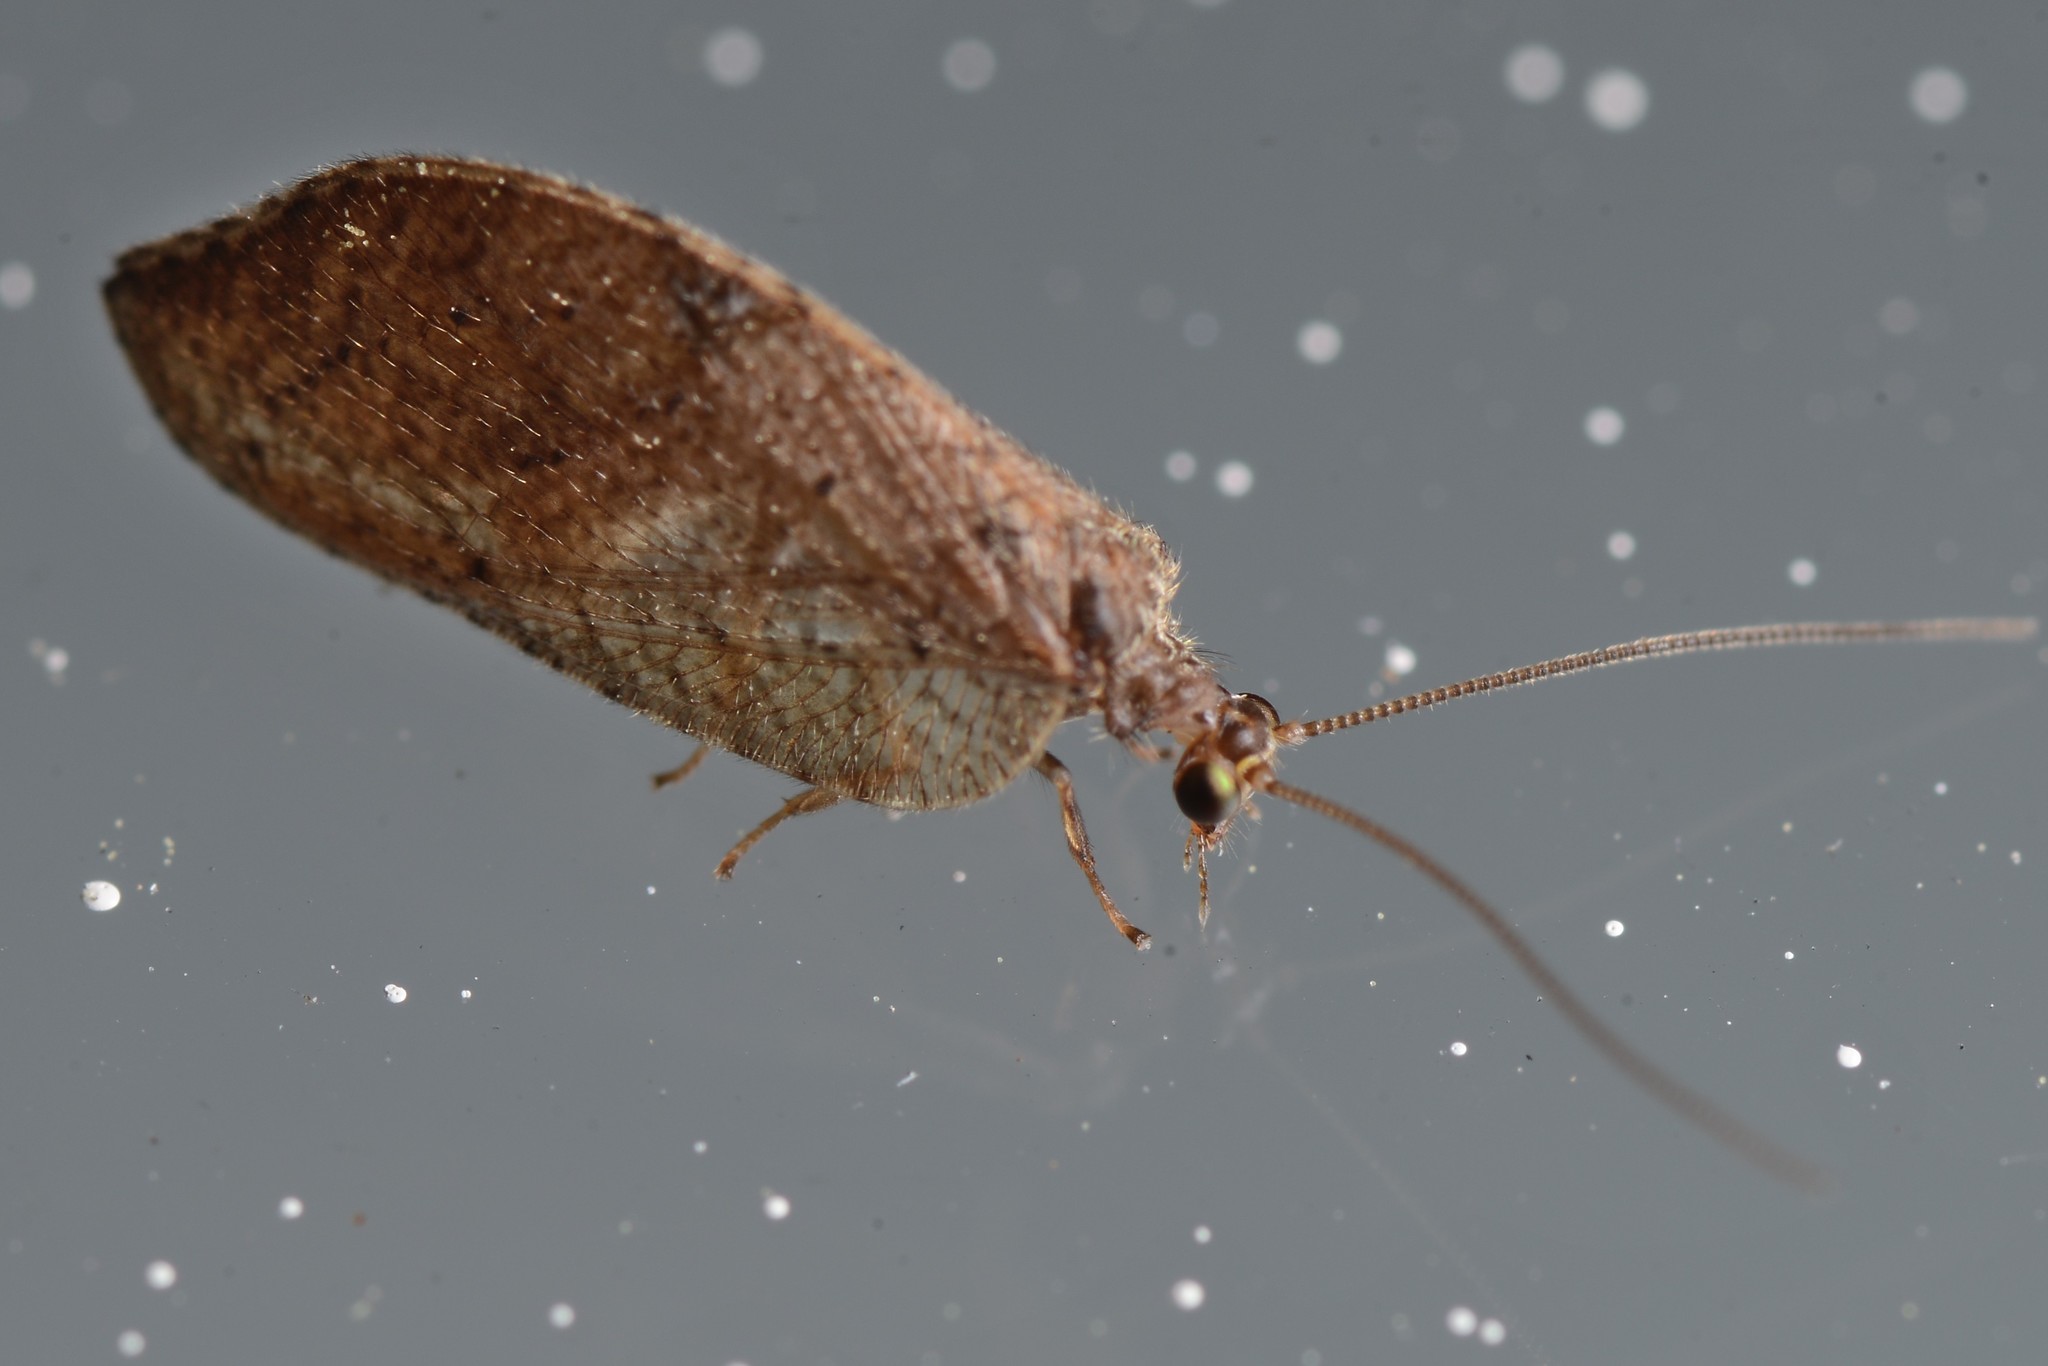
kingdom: Animalia
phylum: Arthropoda
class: Insecta
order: Neuroptera
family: Hemerobiidae
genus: Drepanacra
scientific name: Drepanacra binocula
